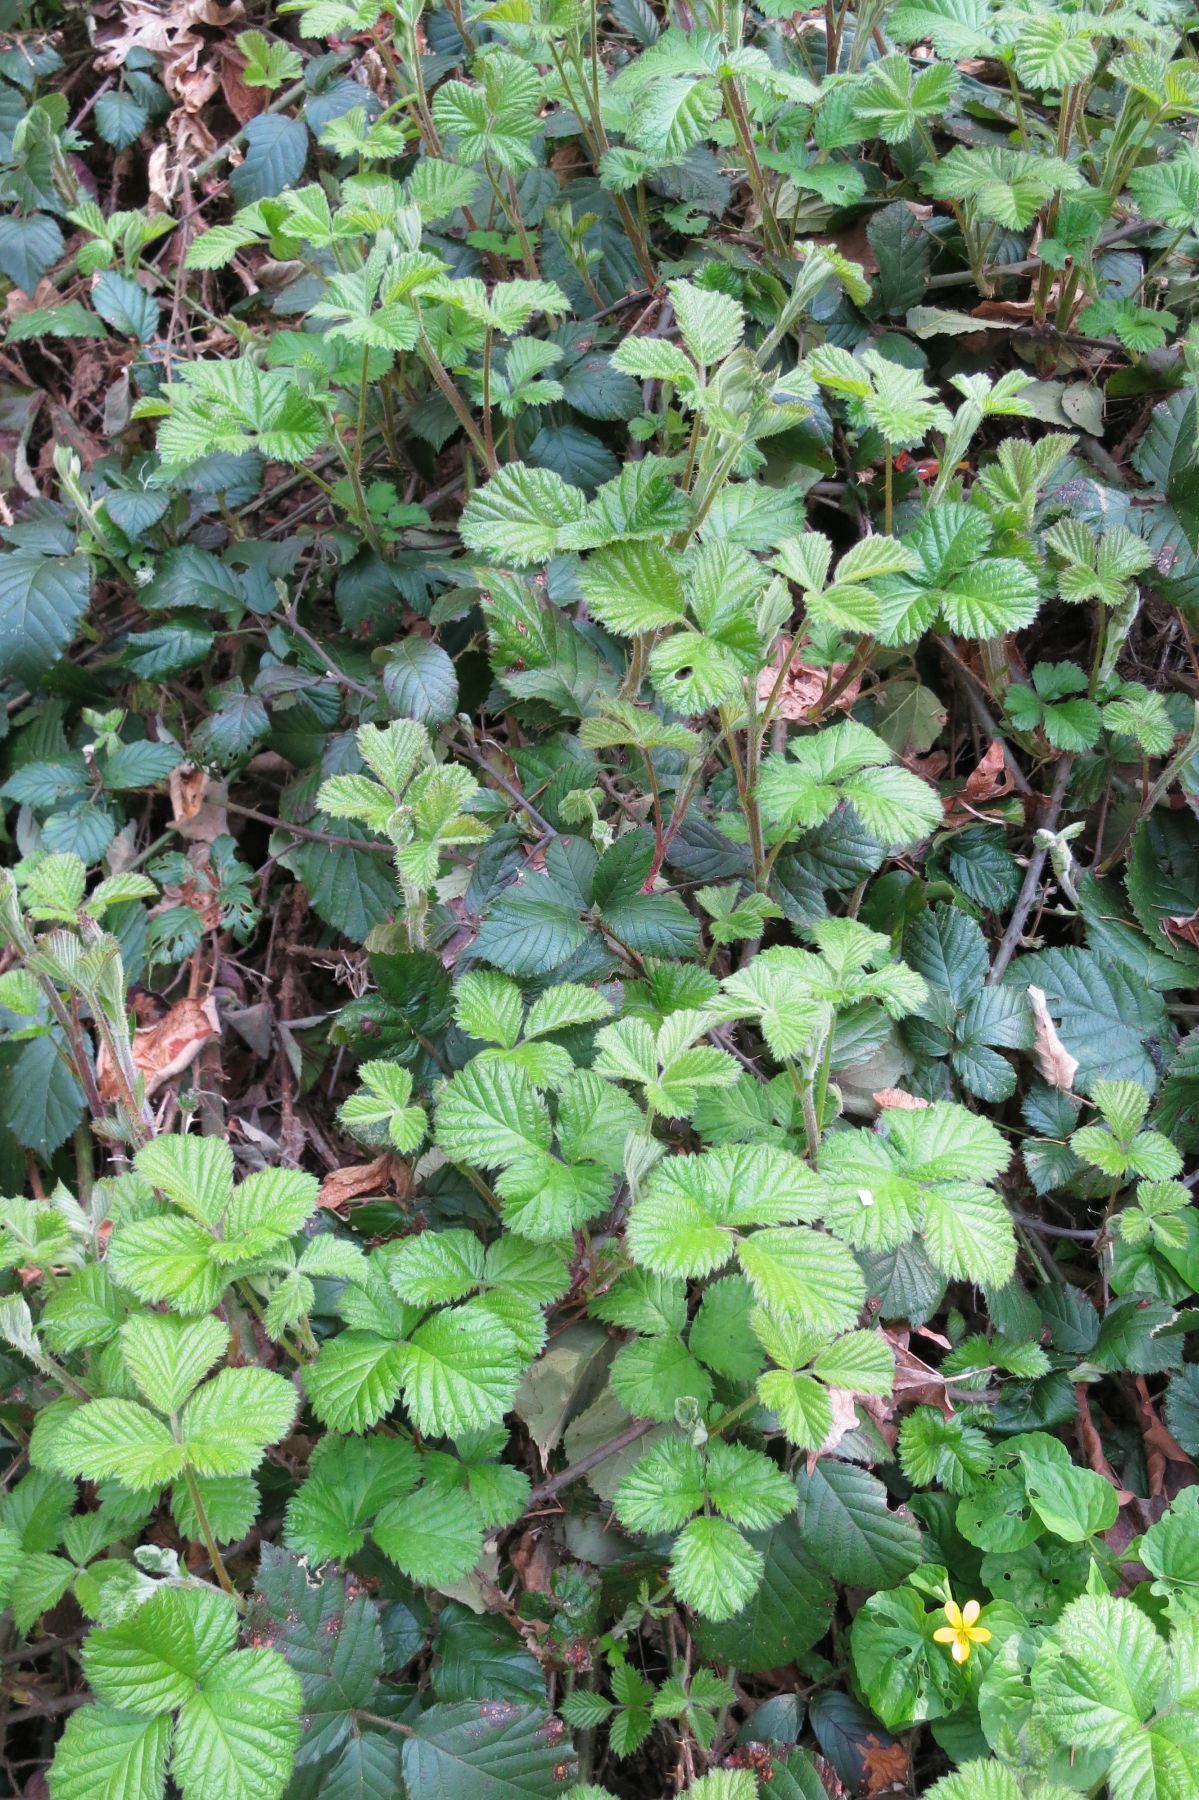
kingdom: Plantae
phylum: Tracheophyta
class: Magnoliopsida
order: Rosales
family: Rosaceae
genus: Rubus
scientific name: Rubus vestitus
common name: European blackberry
